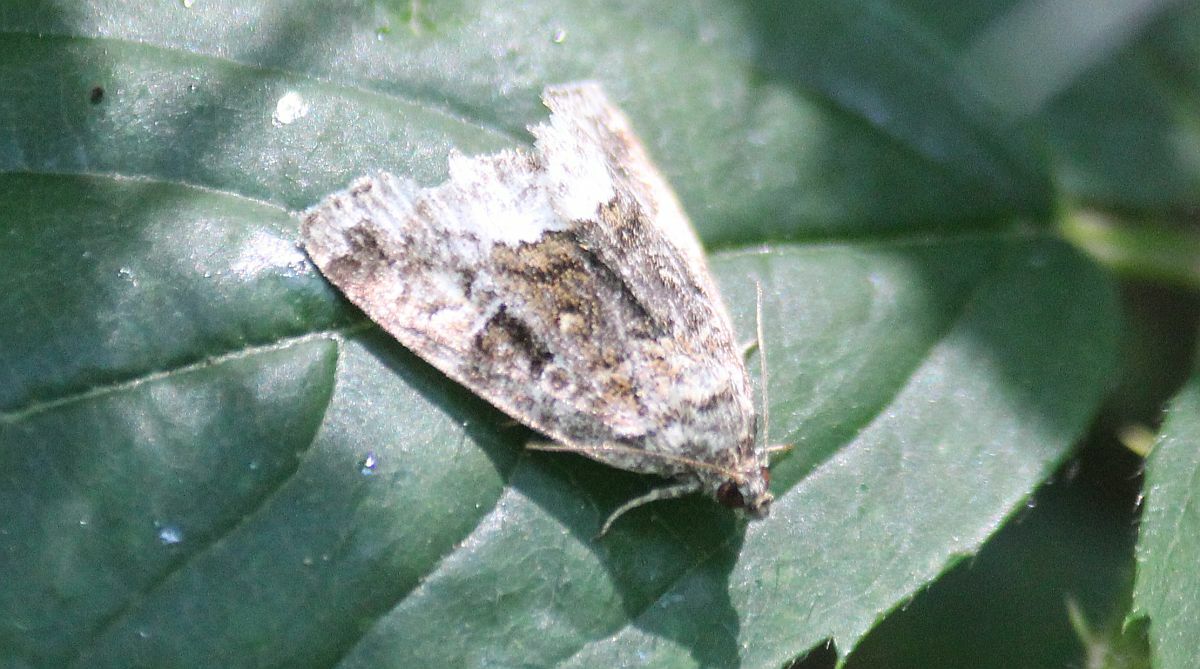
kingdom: Animalia
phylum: Arthropoda
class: Insecta
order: Lepidoptera
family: Noctuidae
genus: Deltote
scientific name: Deltote pygarga
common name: Marbled white spot
